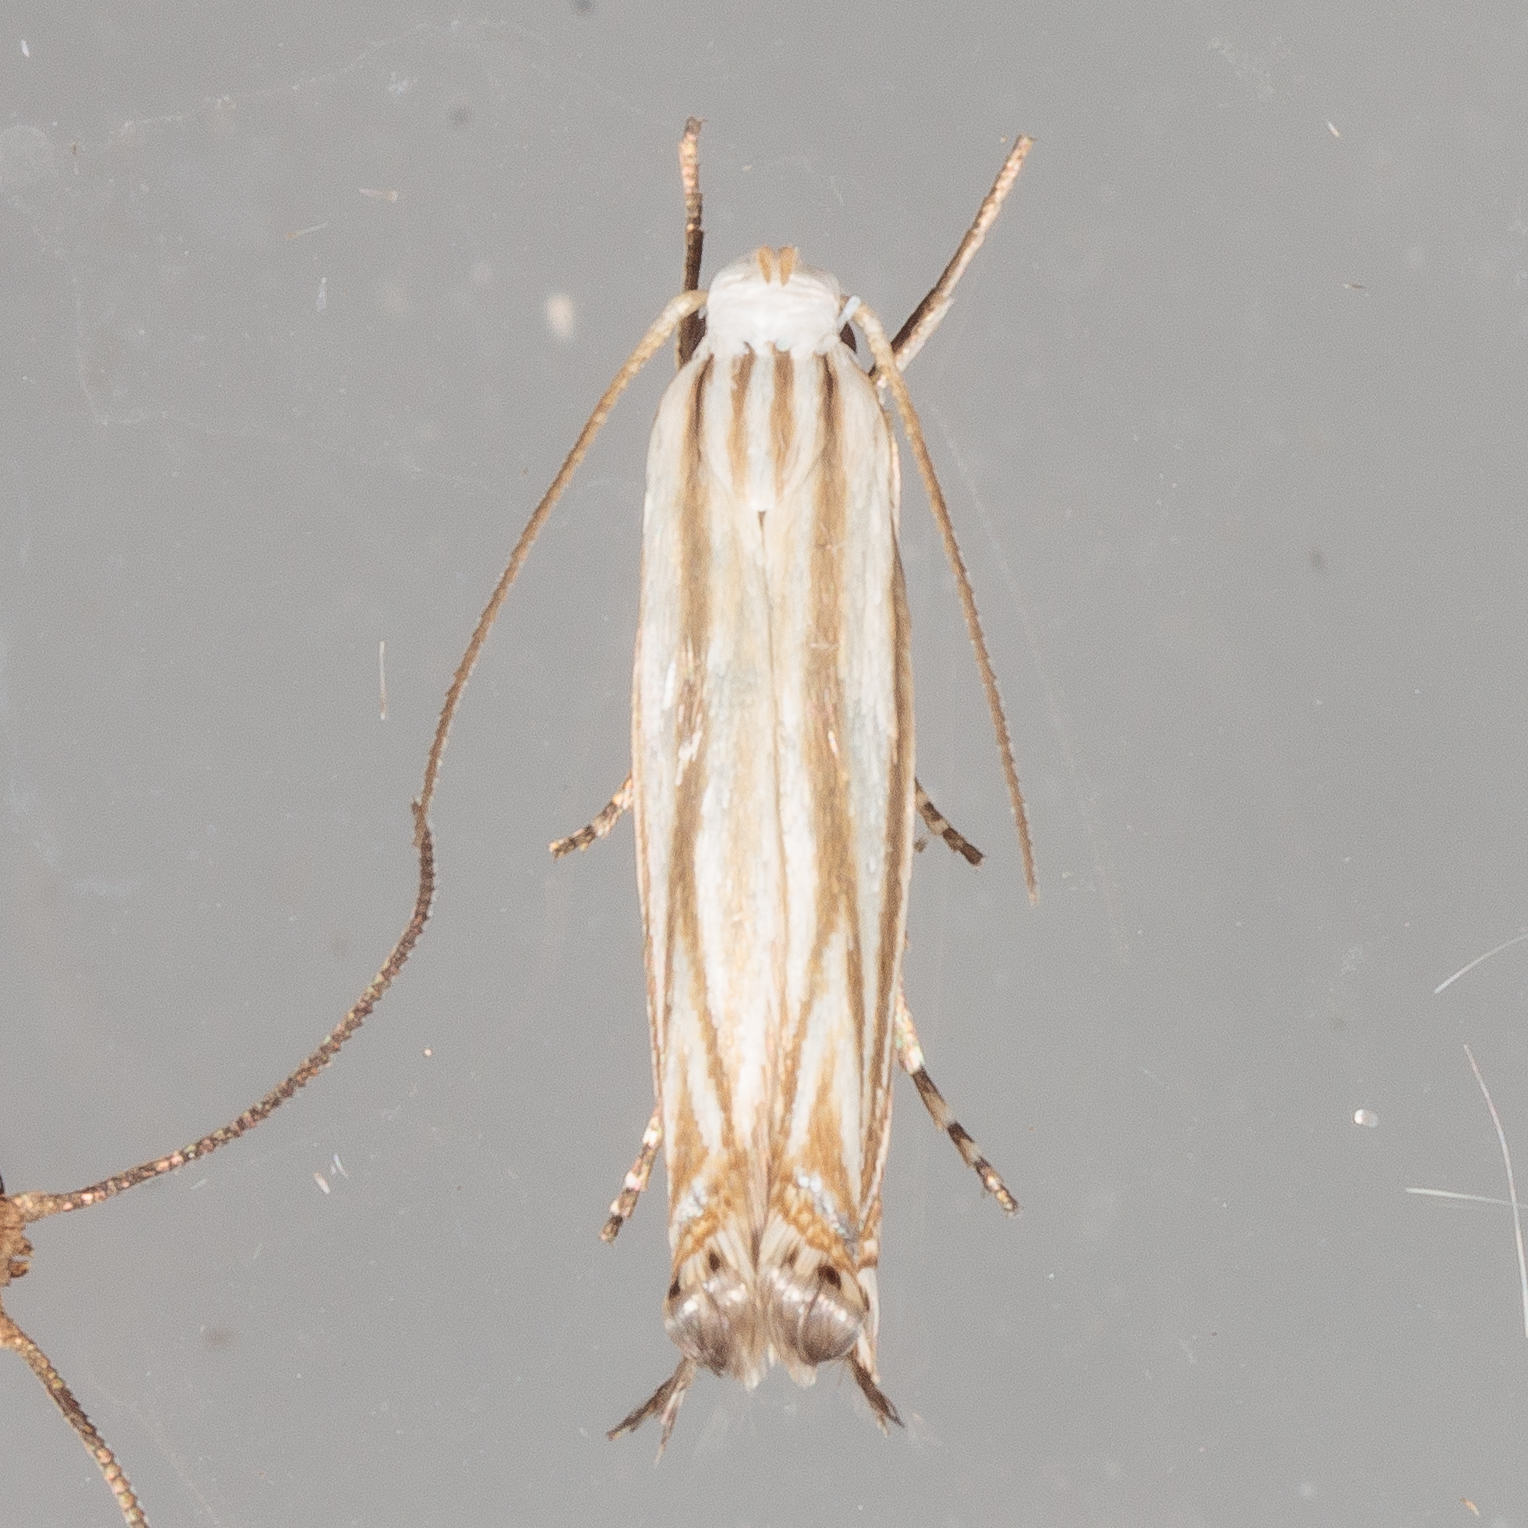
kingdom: Animalia
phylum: Arthropoda
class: Insecta
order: Lepidoptera
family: Gelechiidae
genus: Polyhymno
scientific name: Polyhymno luteostrigella
